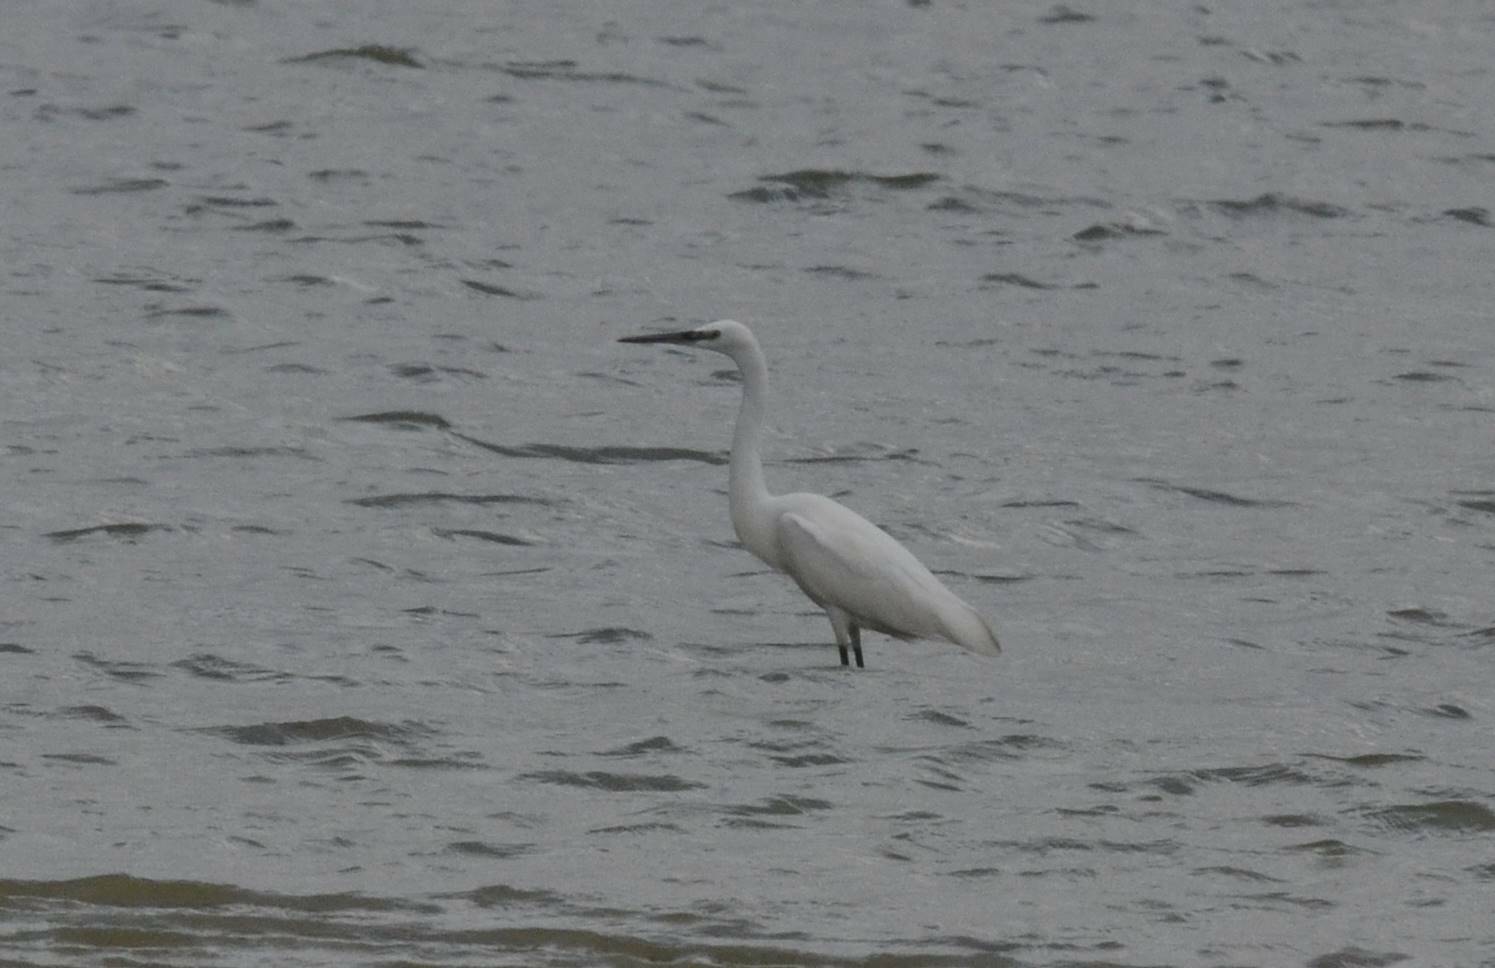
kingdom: Animalia
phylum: Chordata
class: Aves
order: Pelecaniformes
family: Ardeidae
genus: Egretta
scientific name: Egretta garzetta
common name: Little egret
